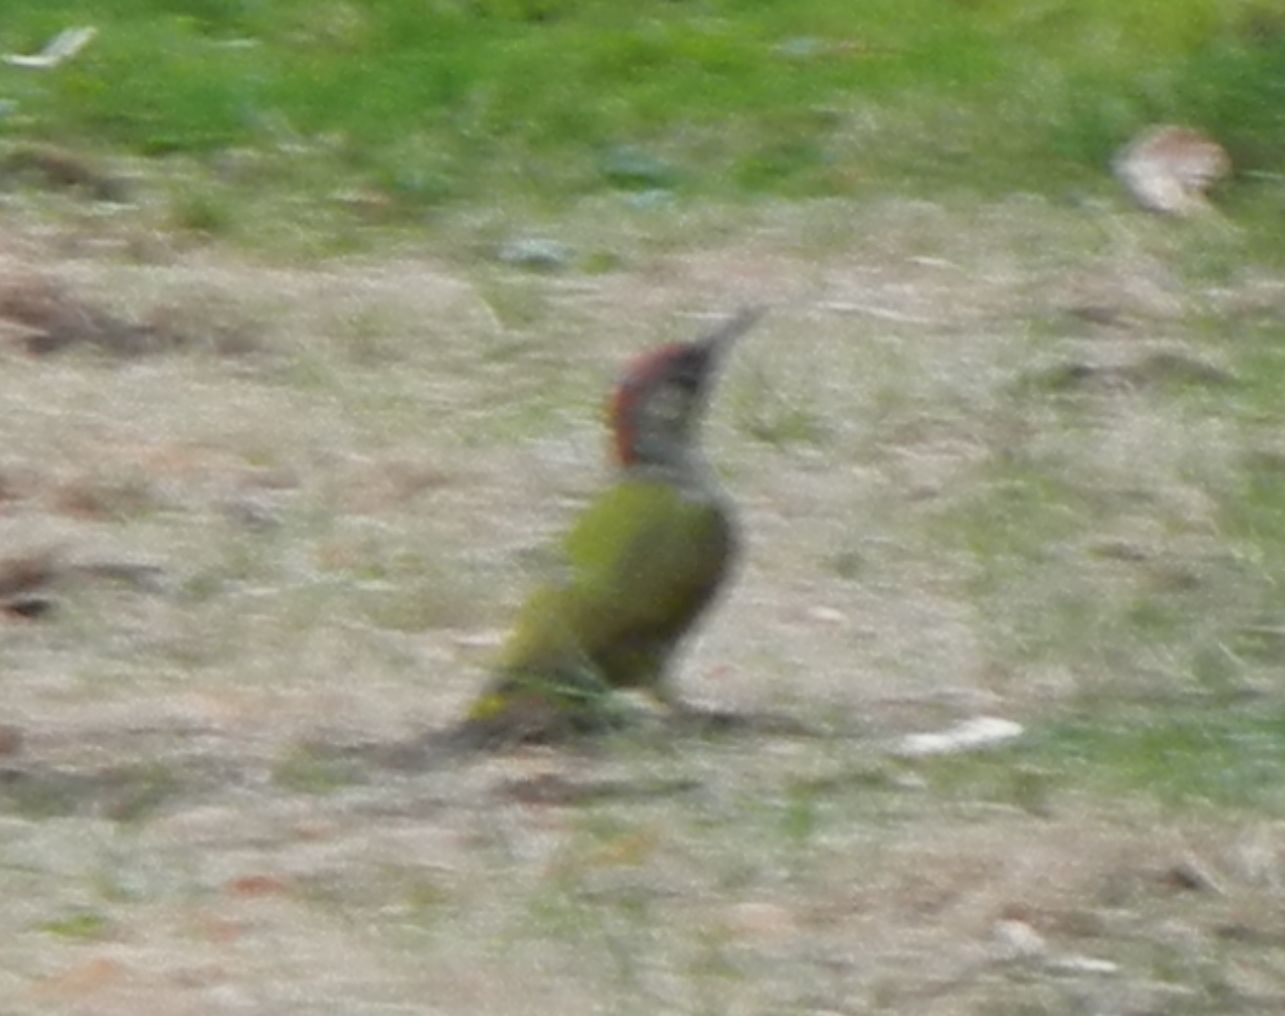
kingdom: Animalia
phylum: Chordata
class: Aves
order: Piciformes
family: Picidae
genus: Picus
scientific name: Picus viridis
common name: European green woodpecker
